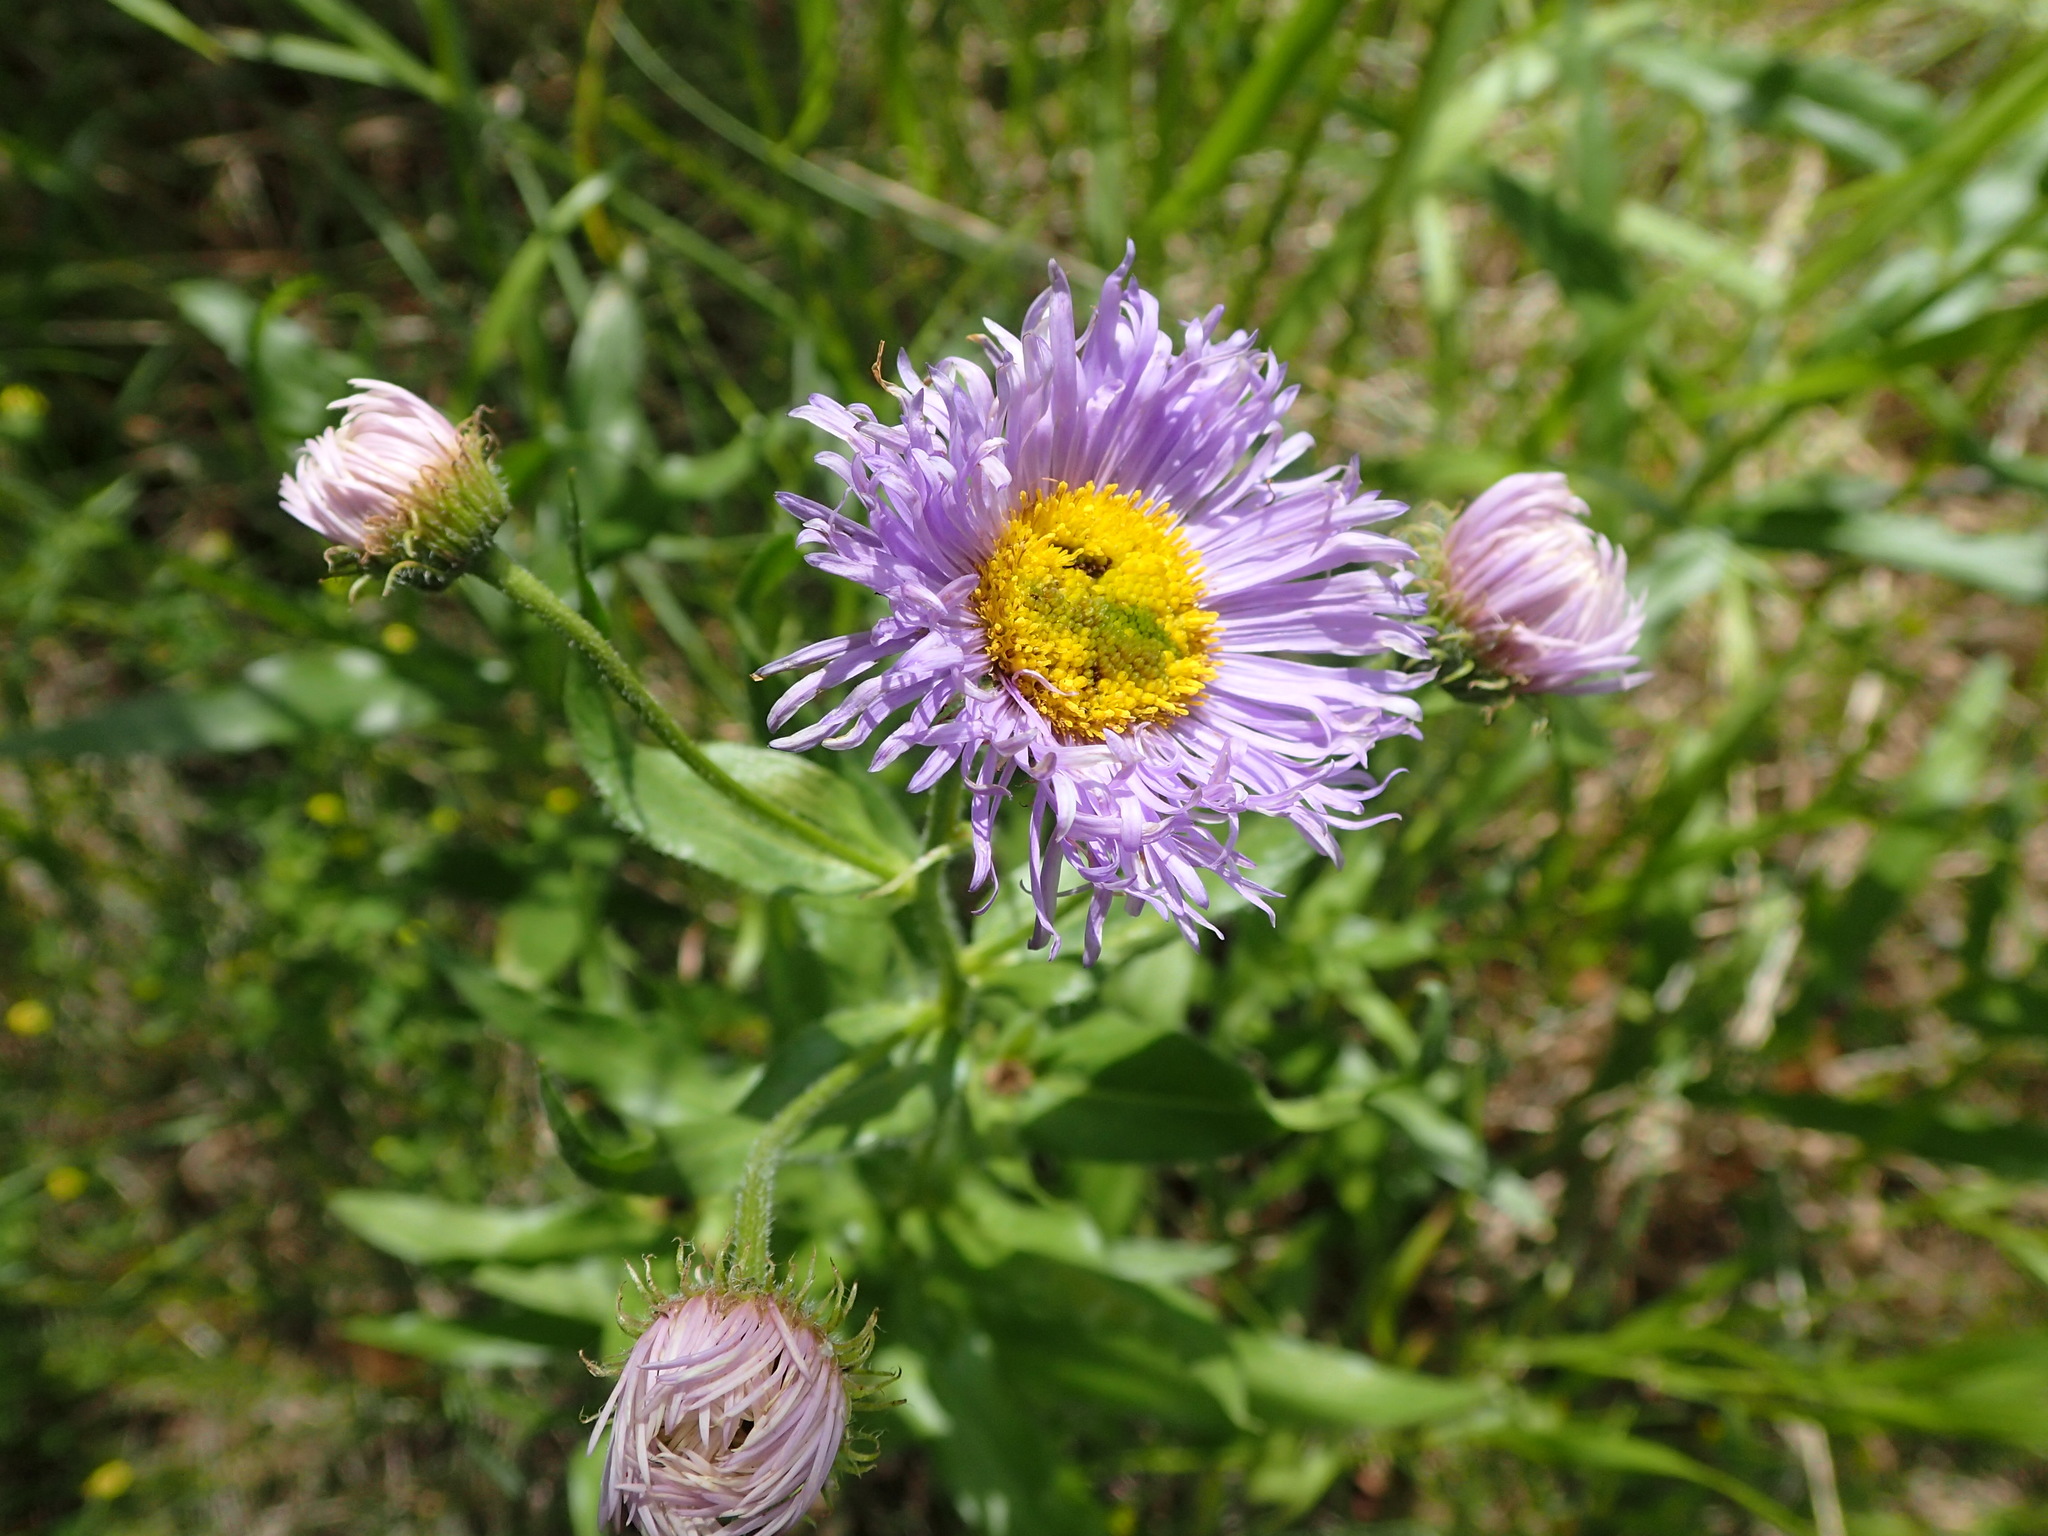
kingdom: Plantae
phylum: Tracheophyta
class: Magnoliopsida
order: Asterales
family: Asteraceae
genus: Erigeron
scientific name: Erigeron speciosus
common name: Aspen fleabane
